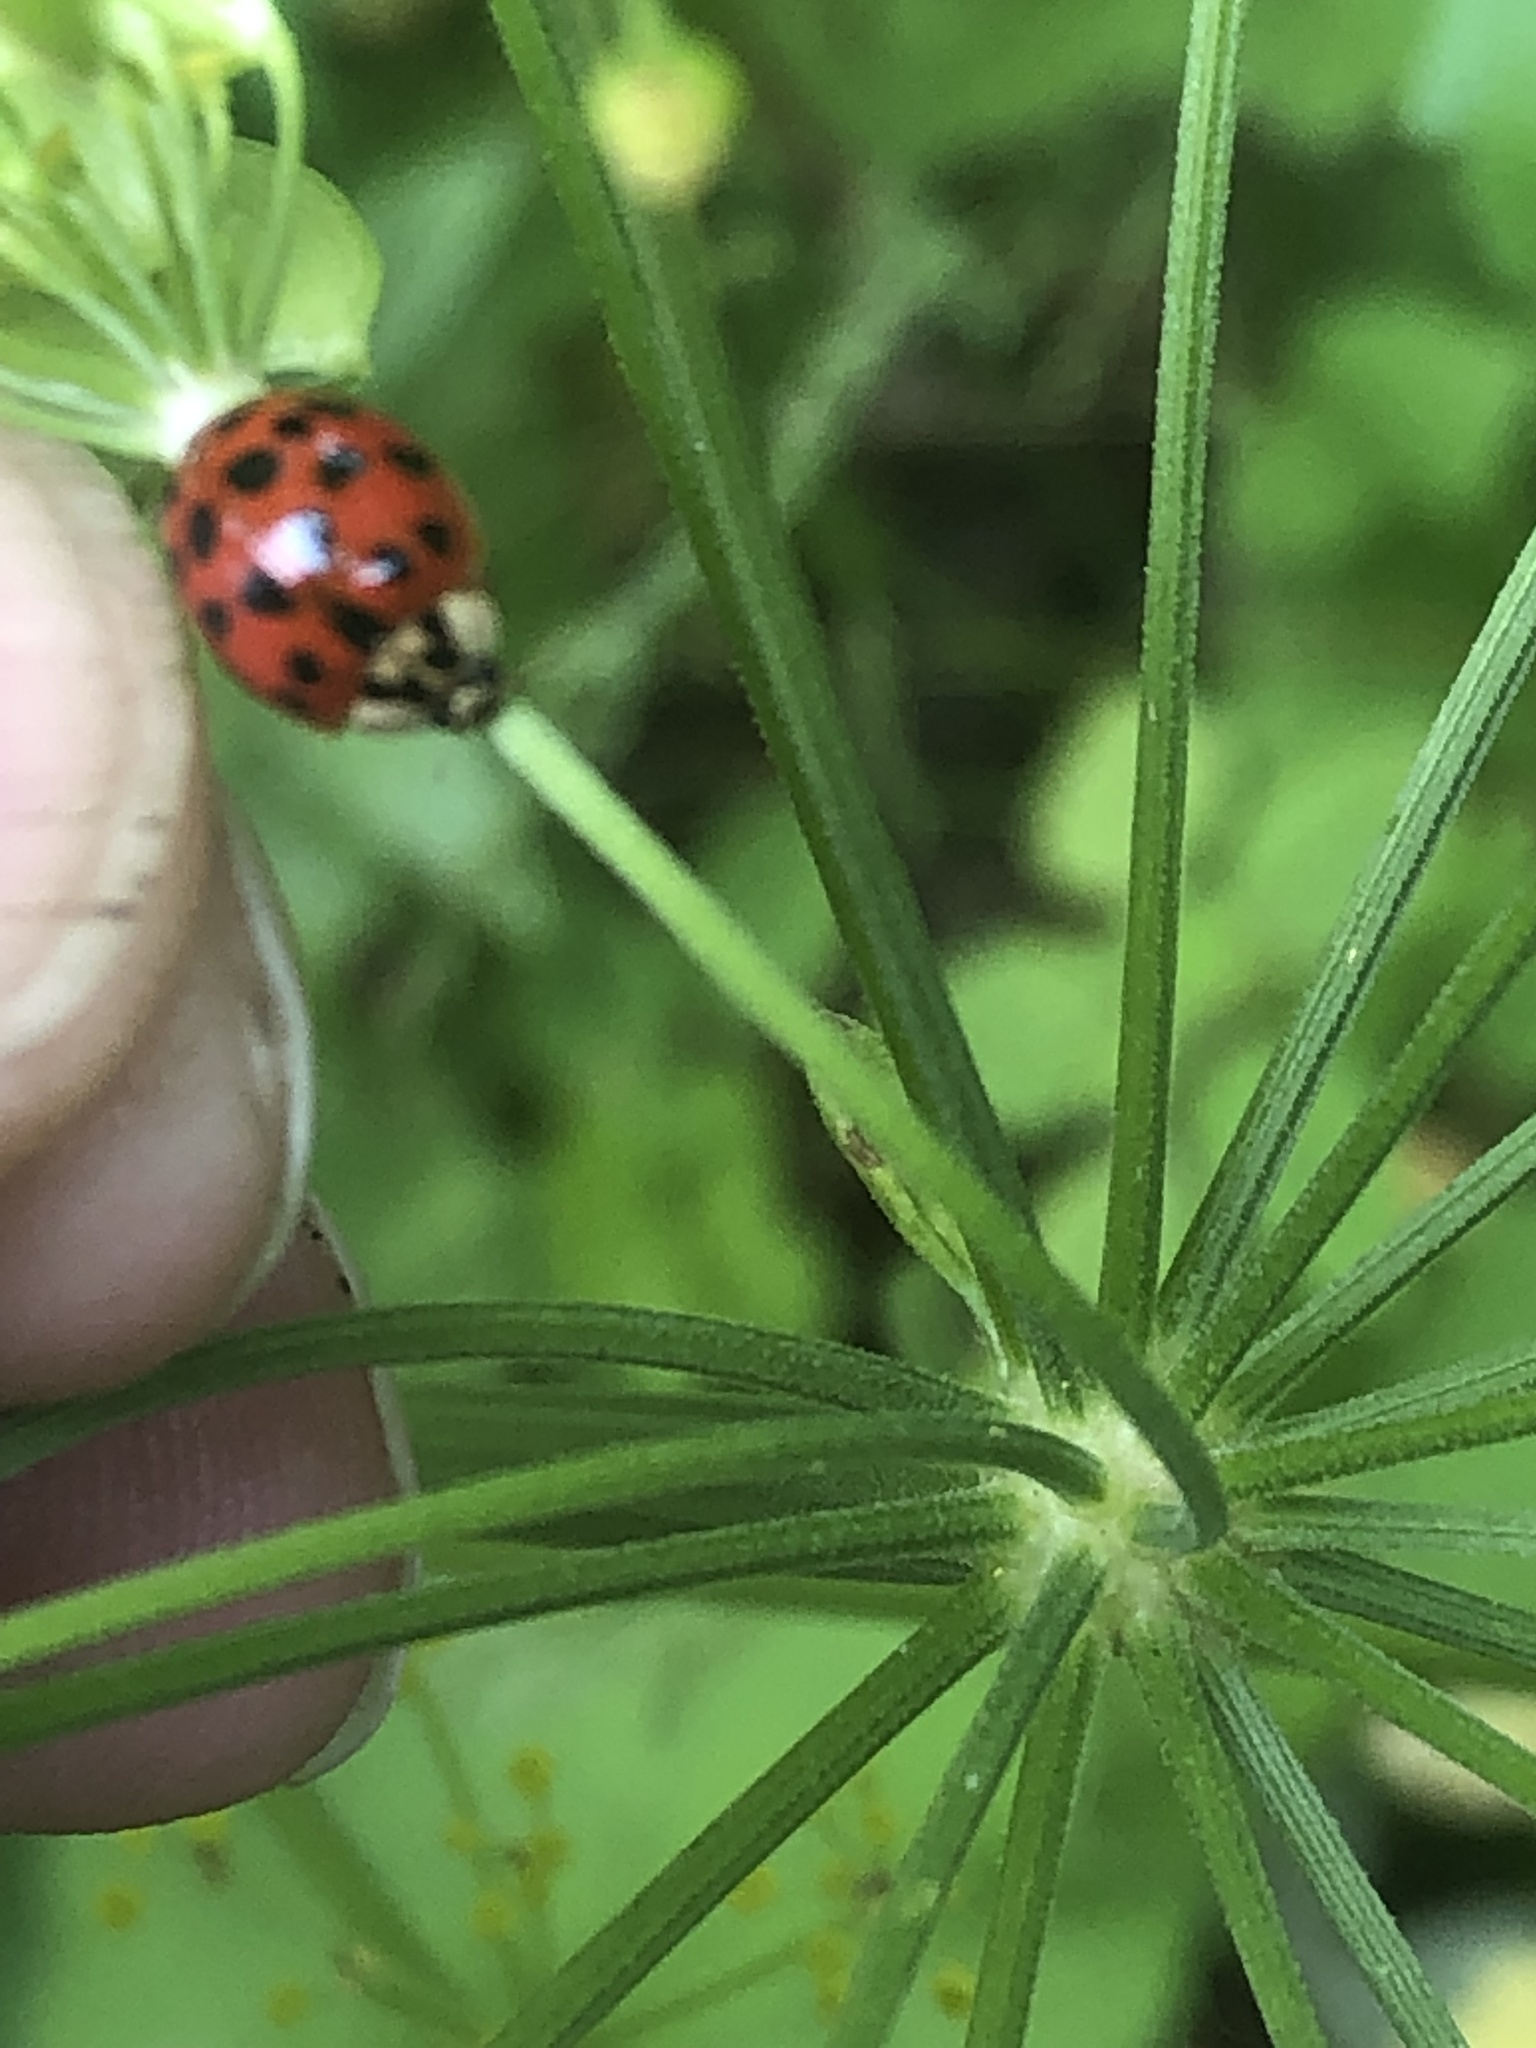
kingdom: Animalia
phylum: Arthropoda
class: Insecta
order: Coleoptera
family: Coccinellidae
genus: Harmonia
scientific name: Harmonia axyridis
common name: Harlequin ladybird
